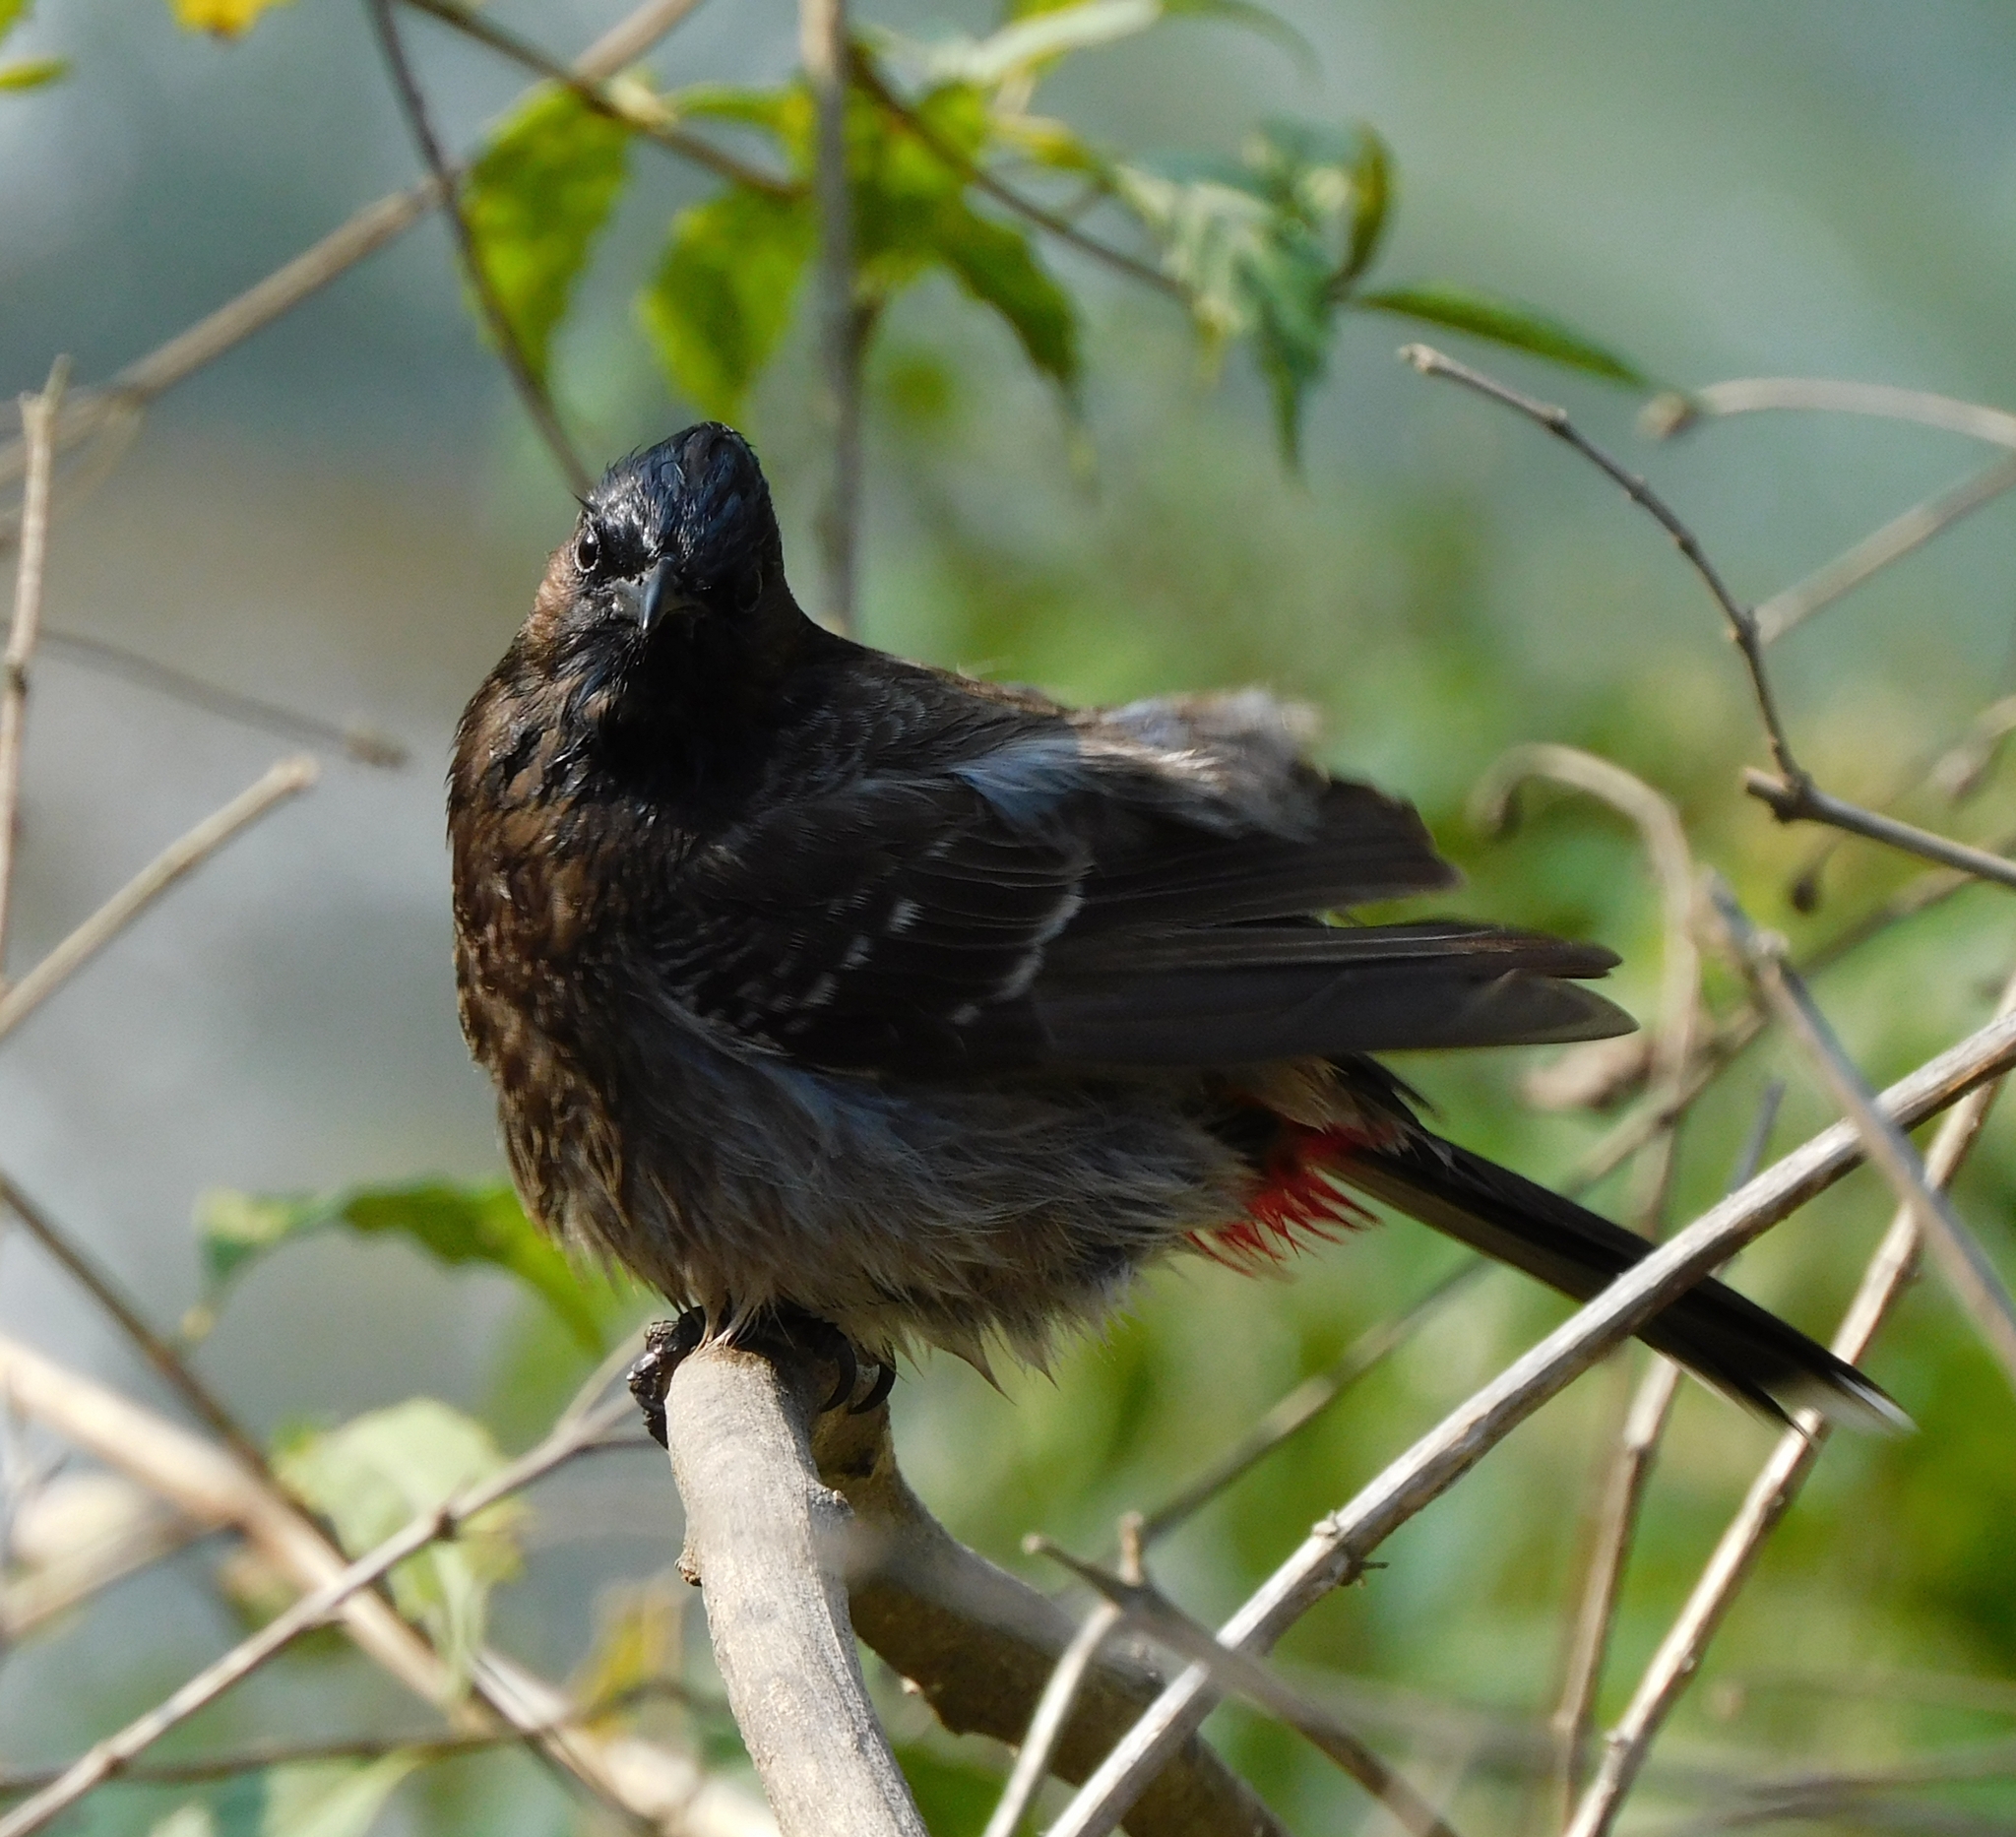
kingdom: Animalia
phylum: Chordata
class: Aves
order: Passeriformes
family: Pycnonotidae
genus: Pycnonotus
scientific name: Pycnonotus cafer
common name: Red-vented bulbul
